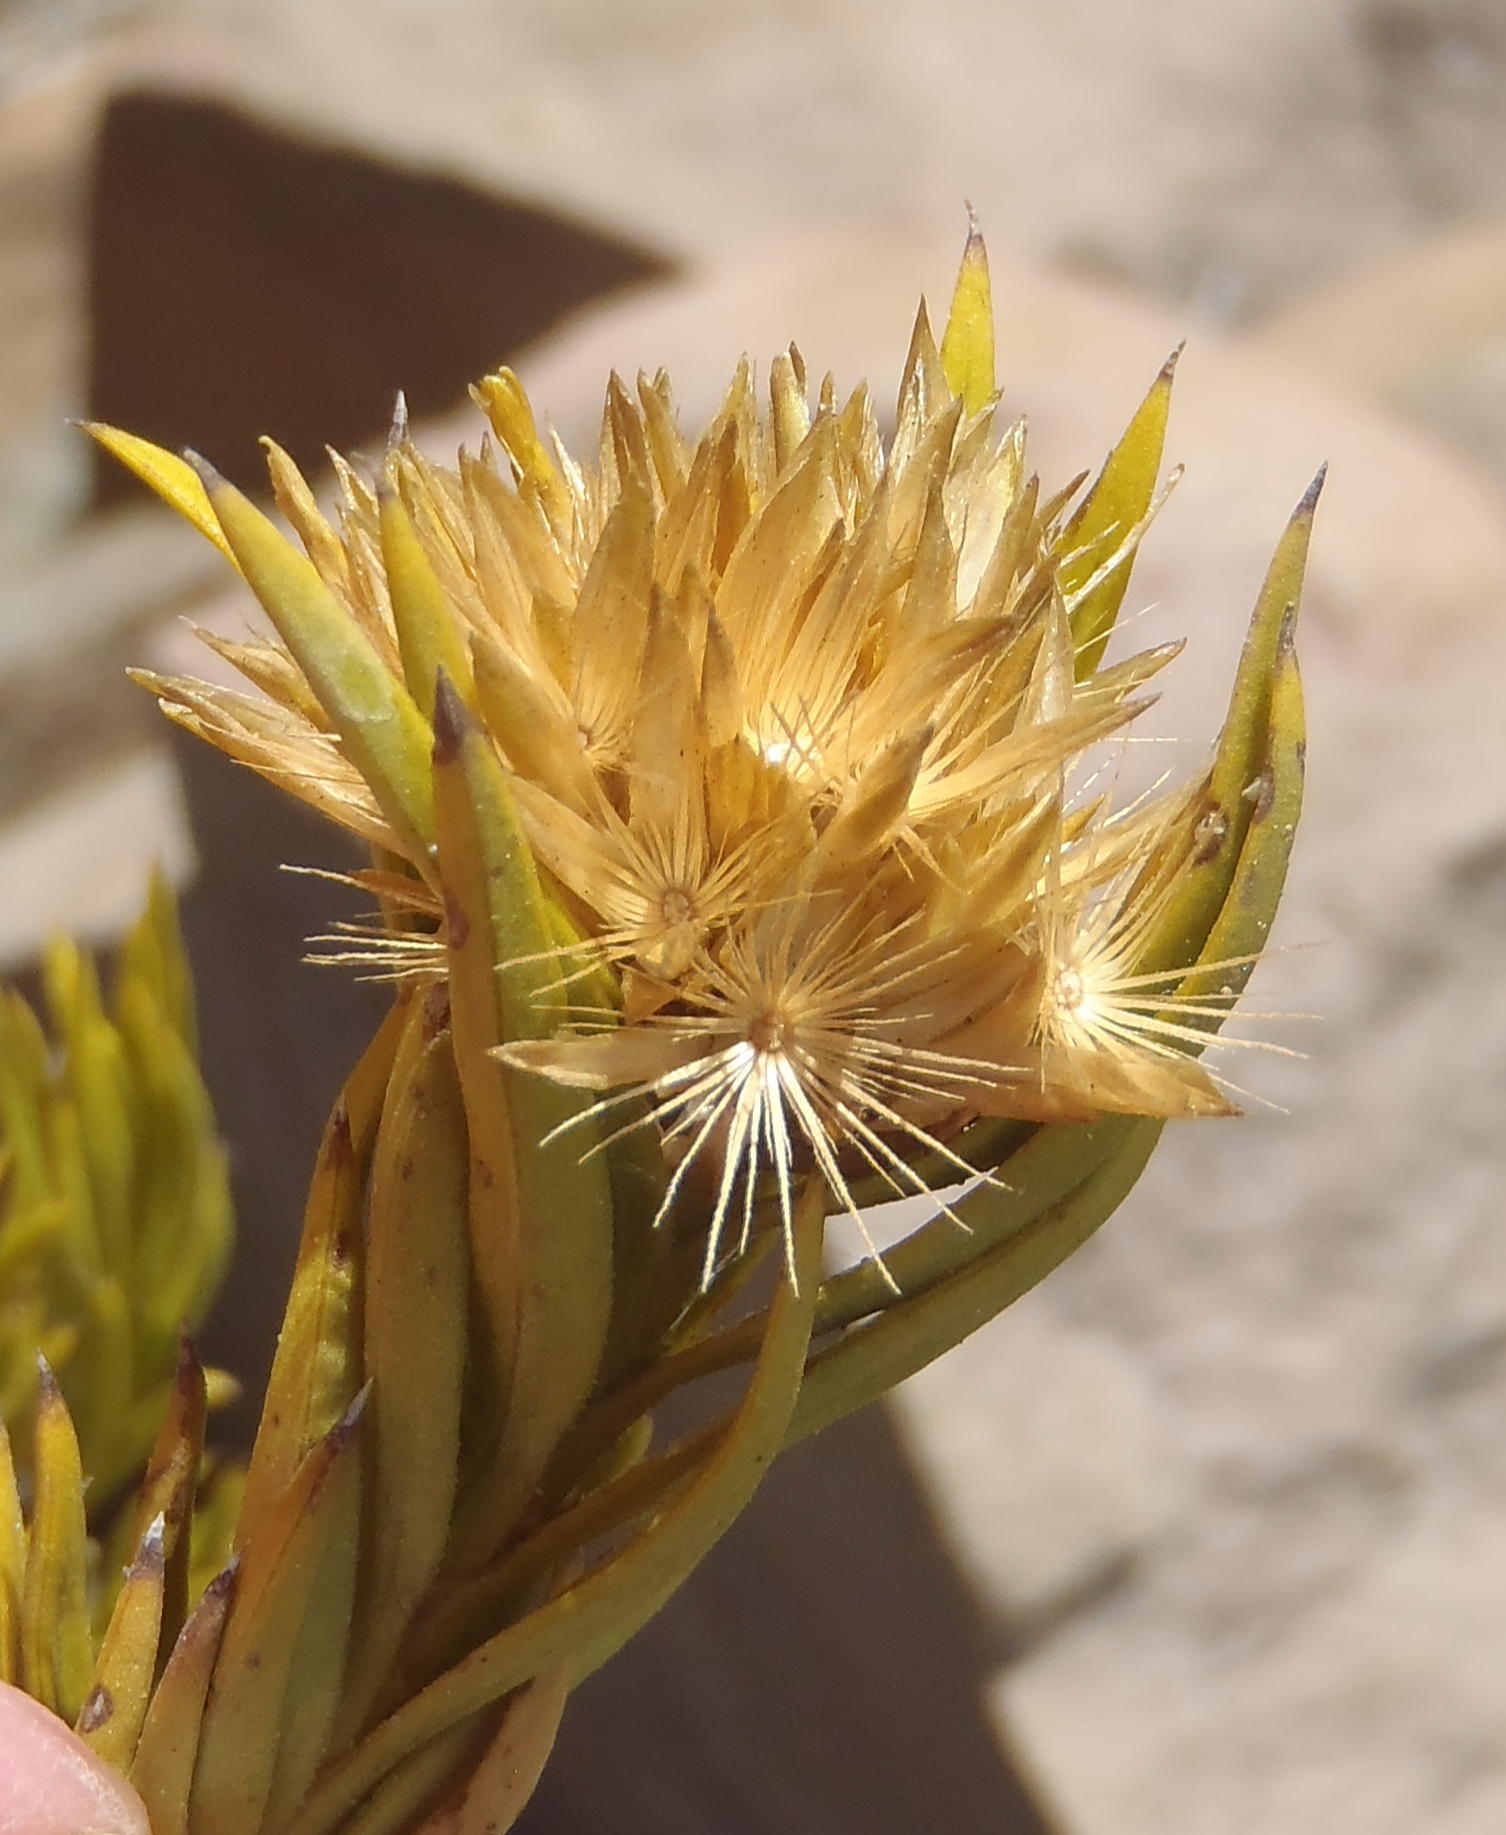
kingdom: Plantae
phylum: Tracheophyta
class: Magnoliopsida
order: Asterales
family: Asteraceae
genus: Pteronia
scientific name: Pteronia fasciculata
